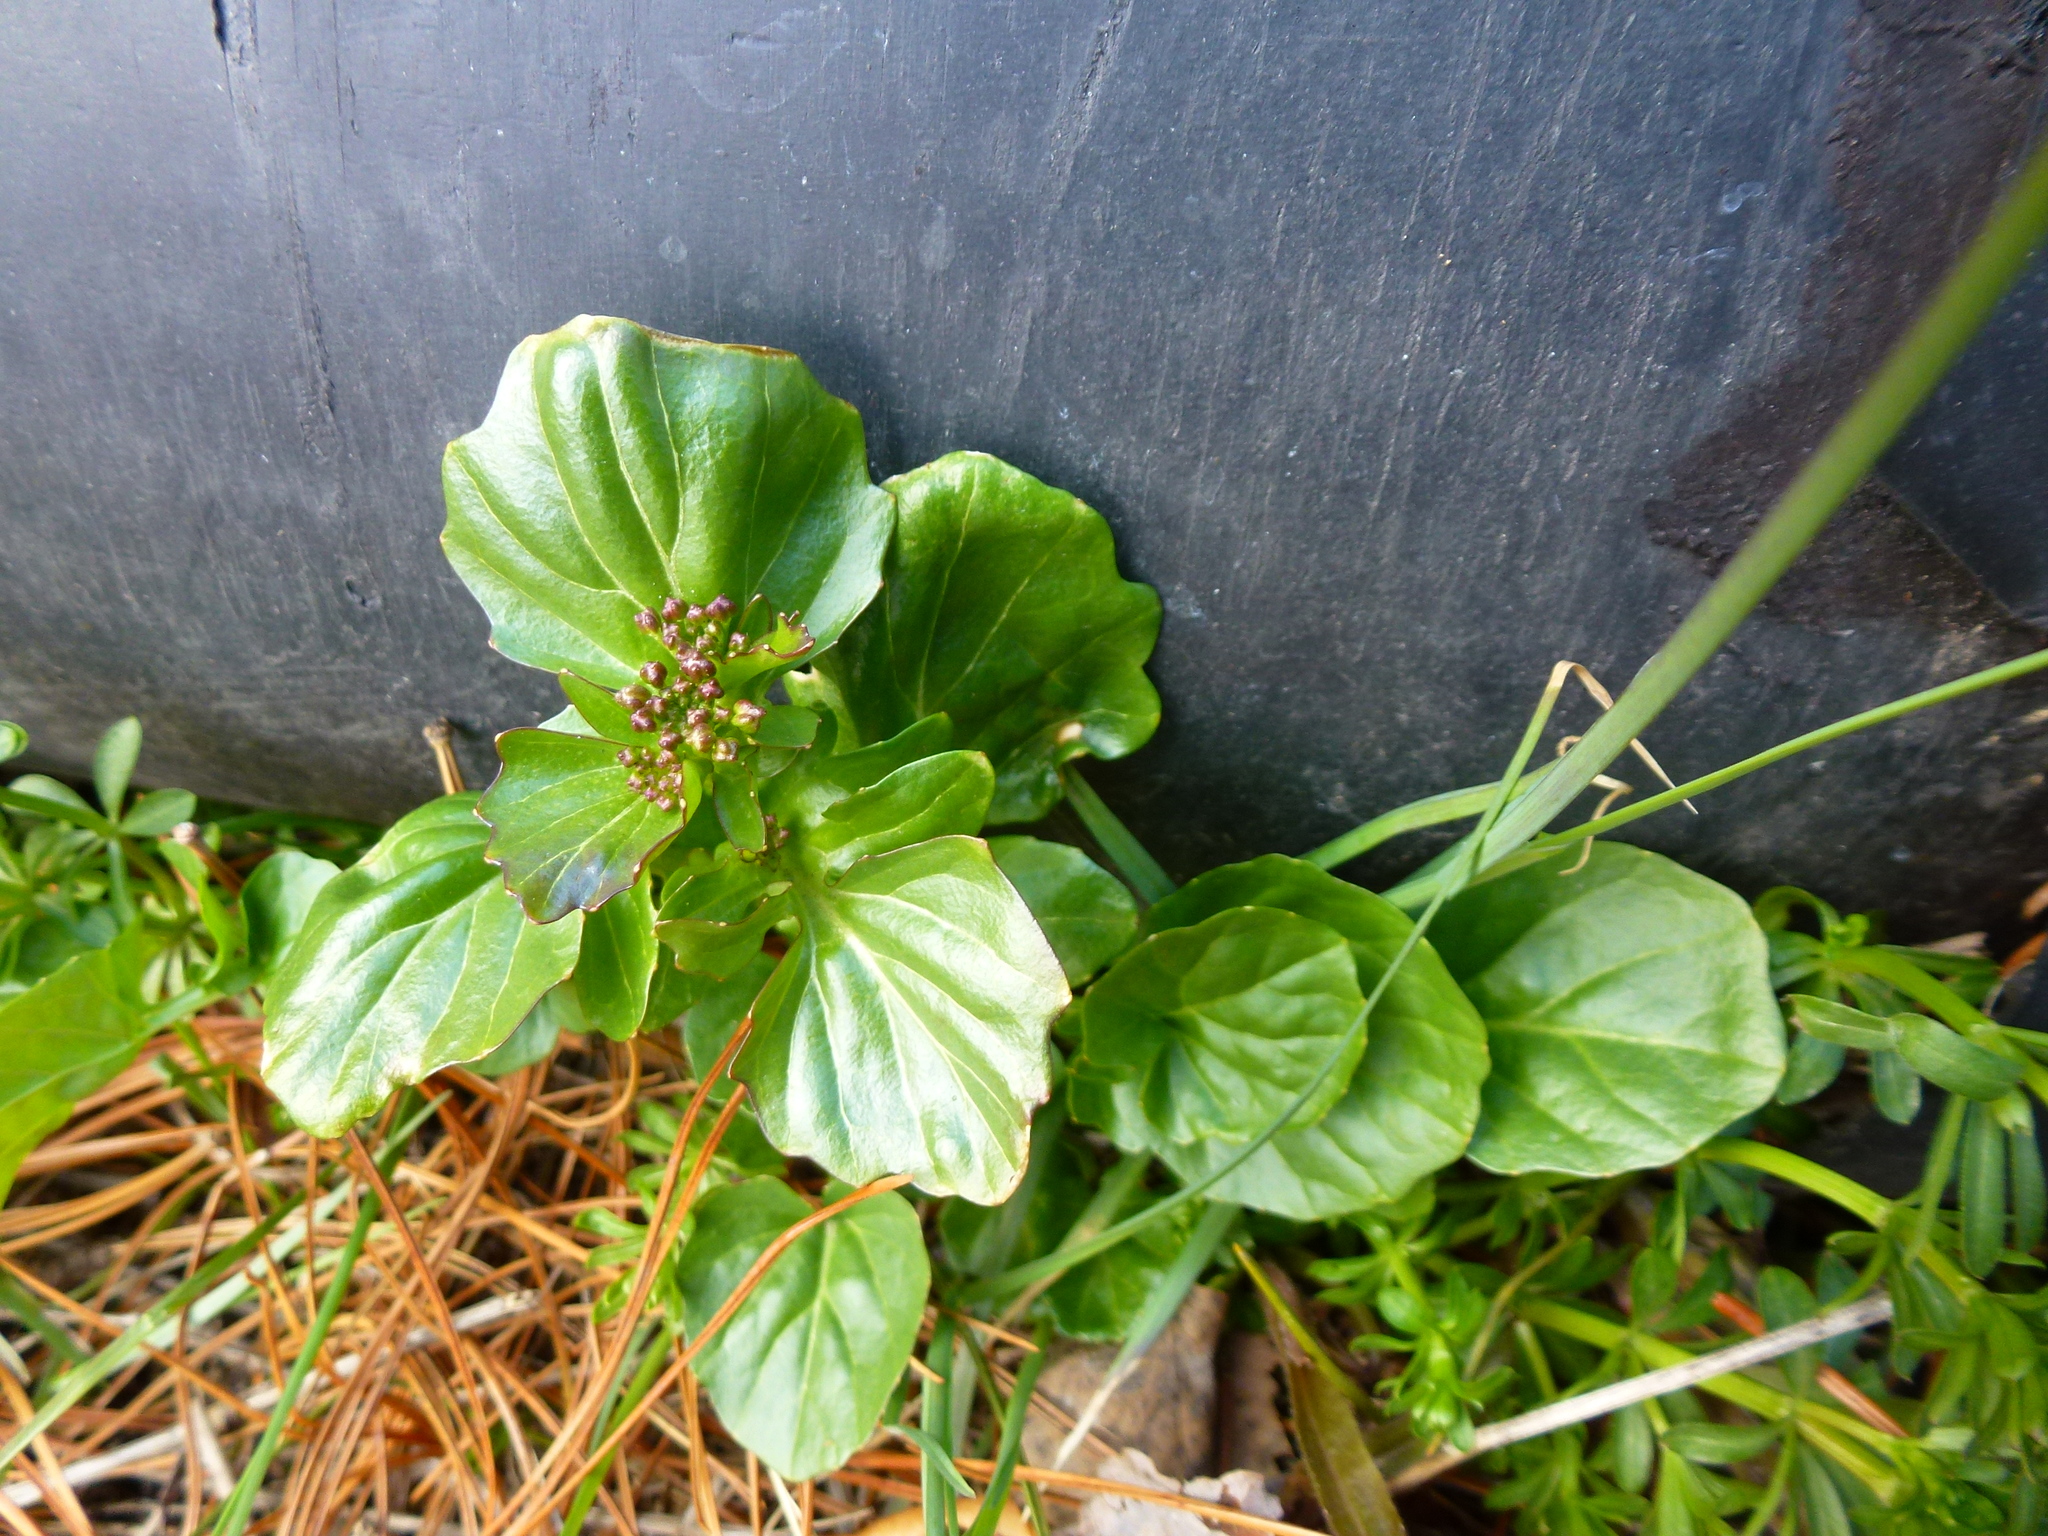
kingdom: Plantae
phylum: Tracheophyta
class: Magnoliopsida
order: Brassicales
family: Brassicaceae
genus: Barbarea
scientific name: Barbarea vulgaris
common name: Cressy-greens
